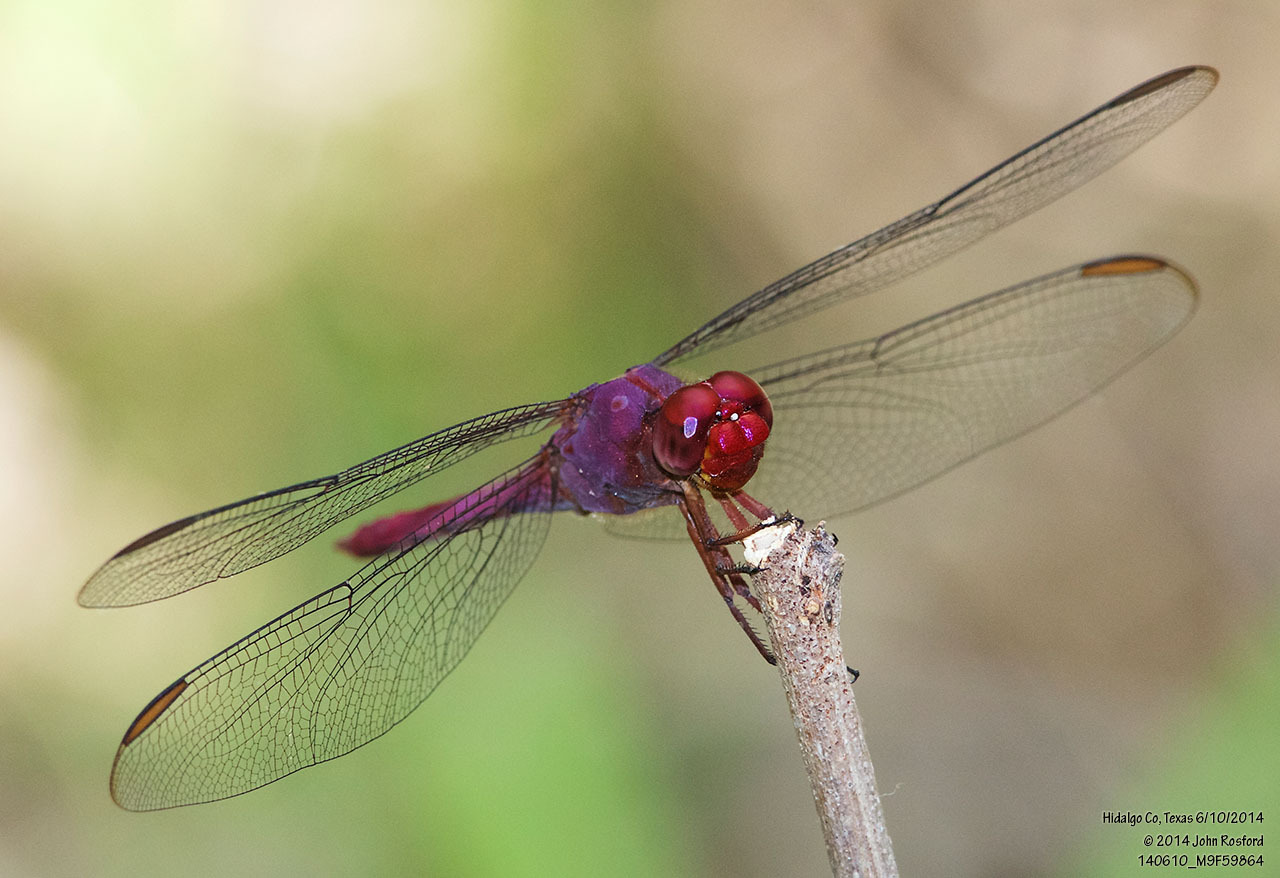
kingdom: Animalia
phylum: Arthropoda
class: Insecta
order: Odonata
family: Libellulidae
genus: Orthemis
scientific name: Orthemis discolor
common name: Carmine skimmer
